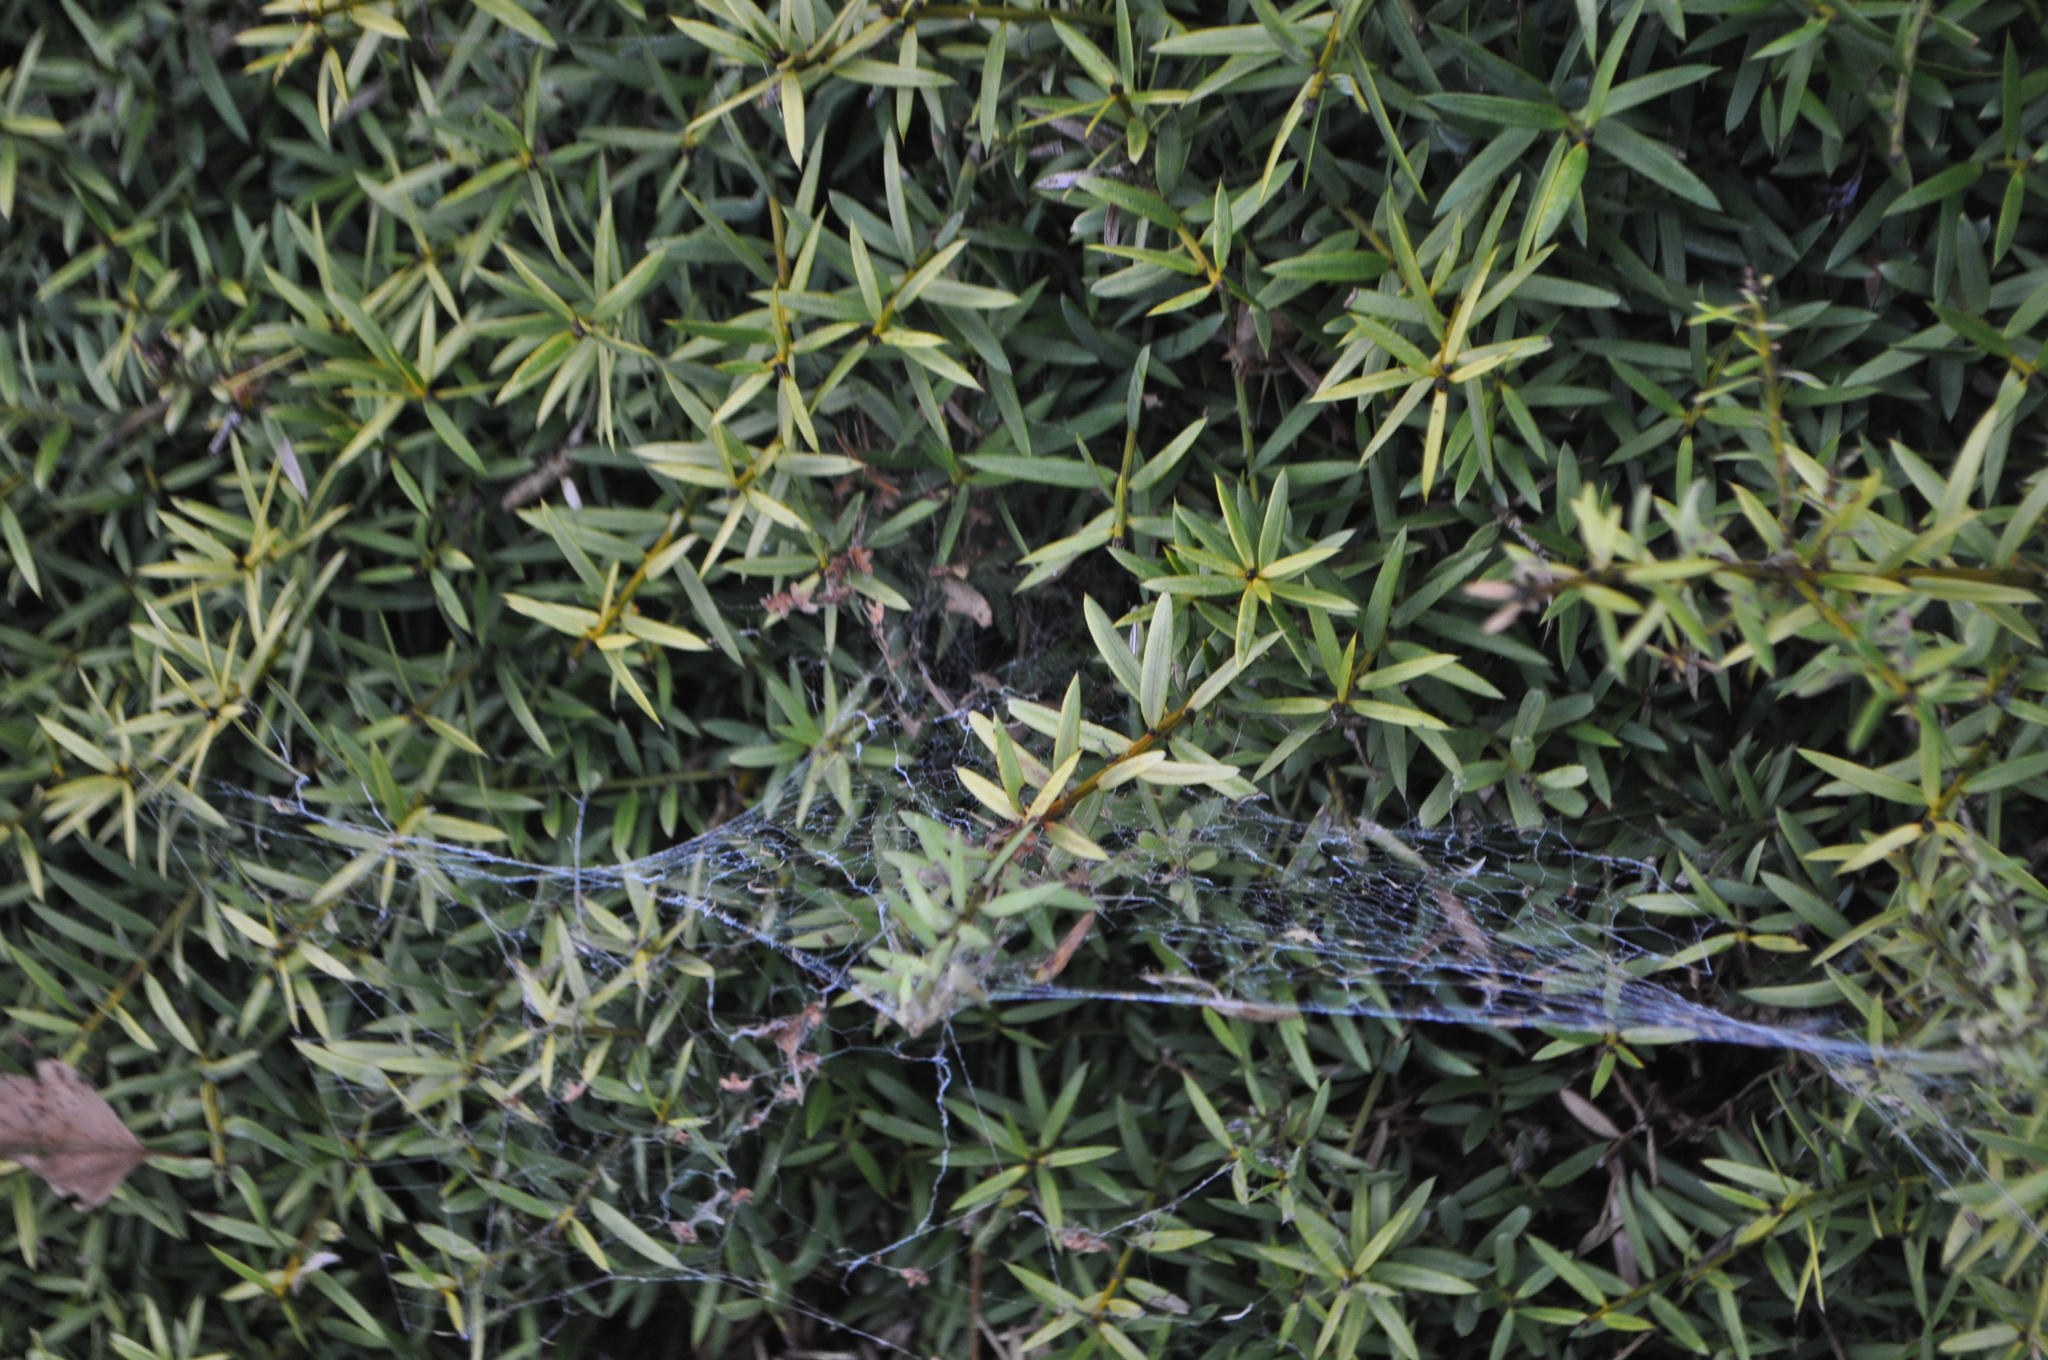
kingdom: Plantae
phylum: Tracheophyta
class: Pinopsida
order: Pinales
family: Podocarpaceae
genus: Podocarpus
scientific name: Podocarpus totara
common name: Totara
